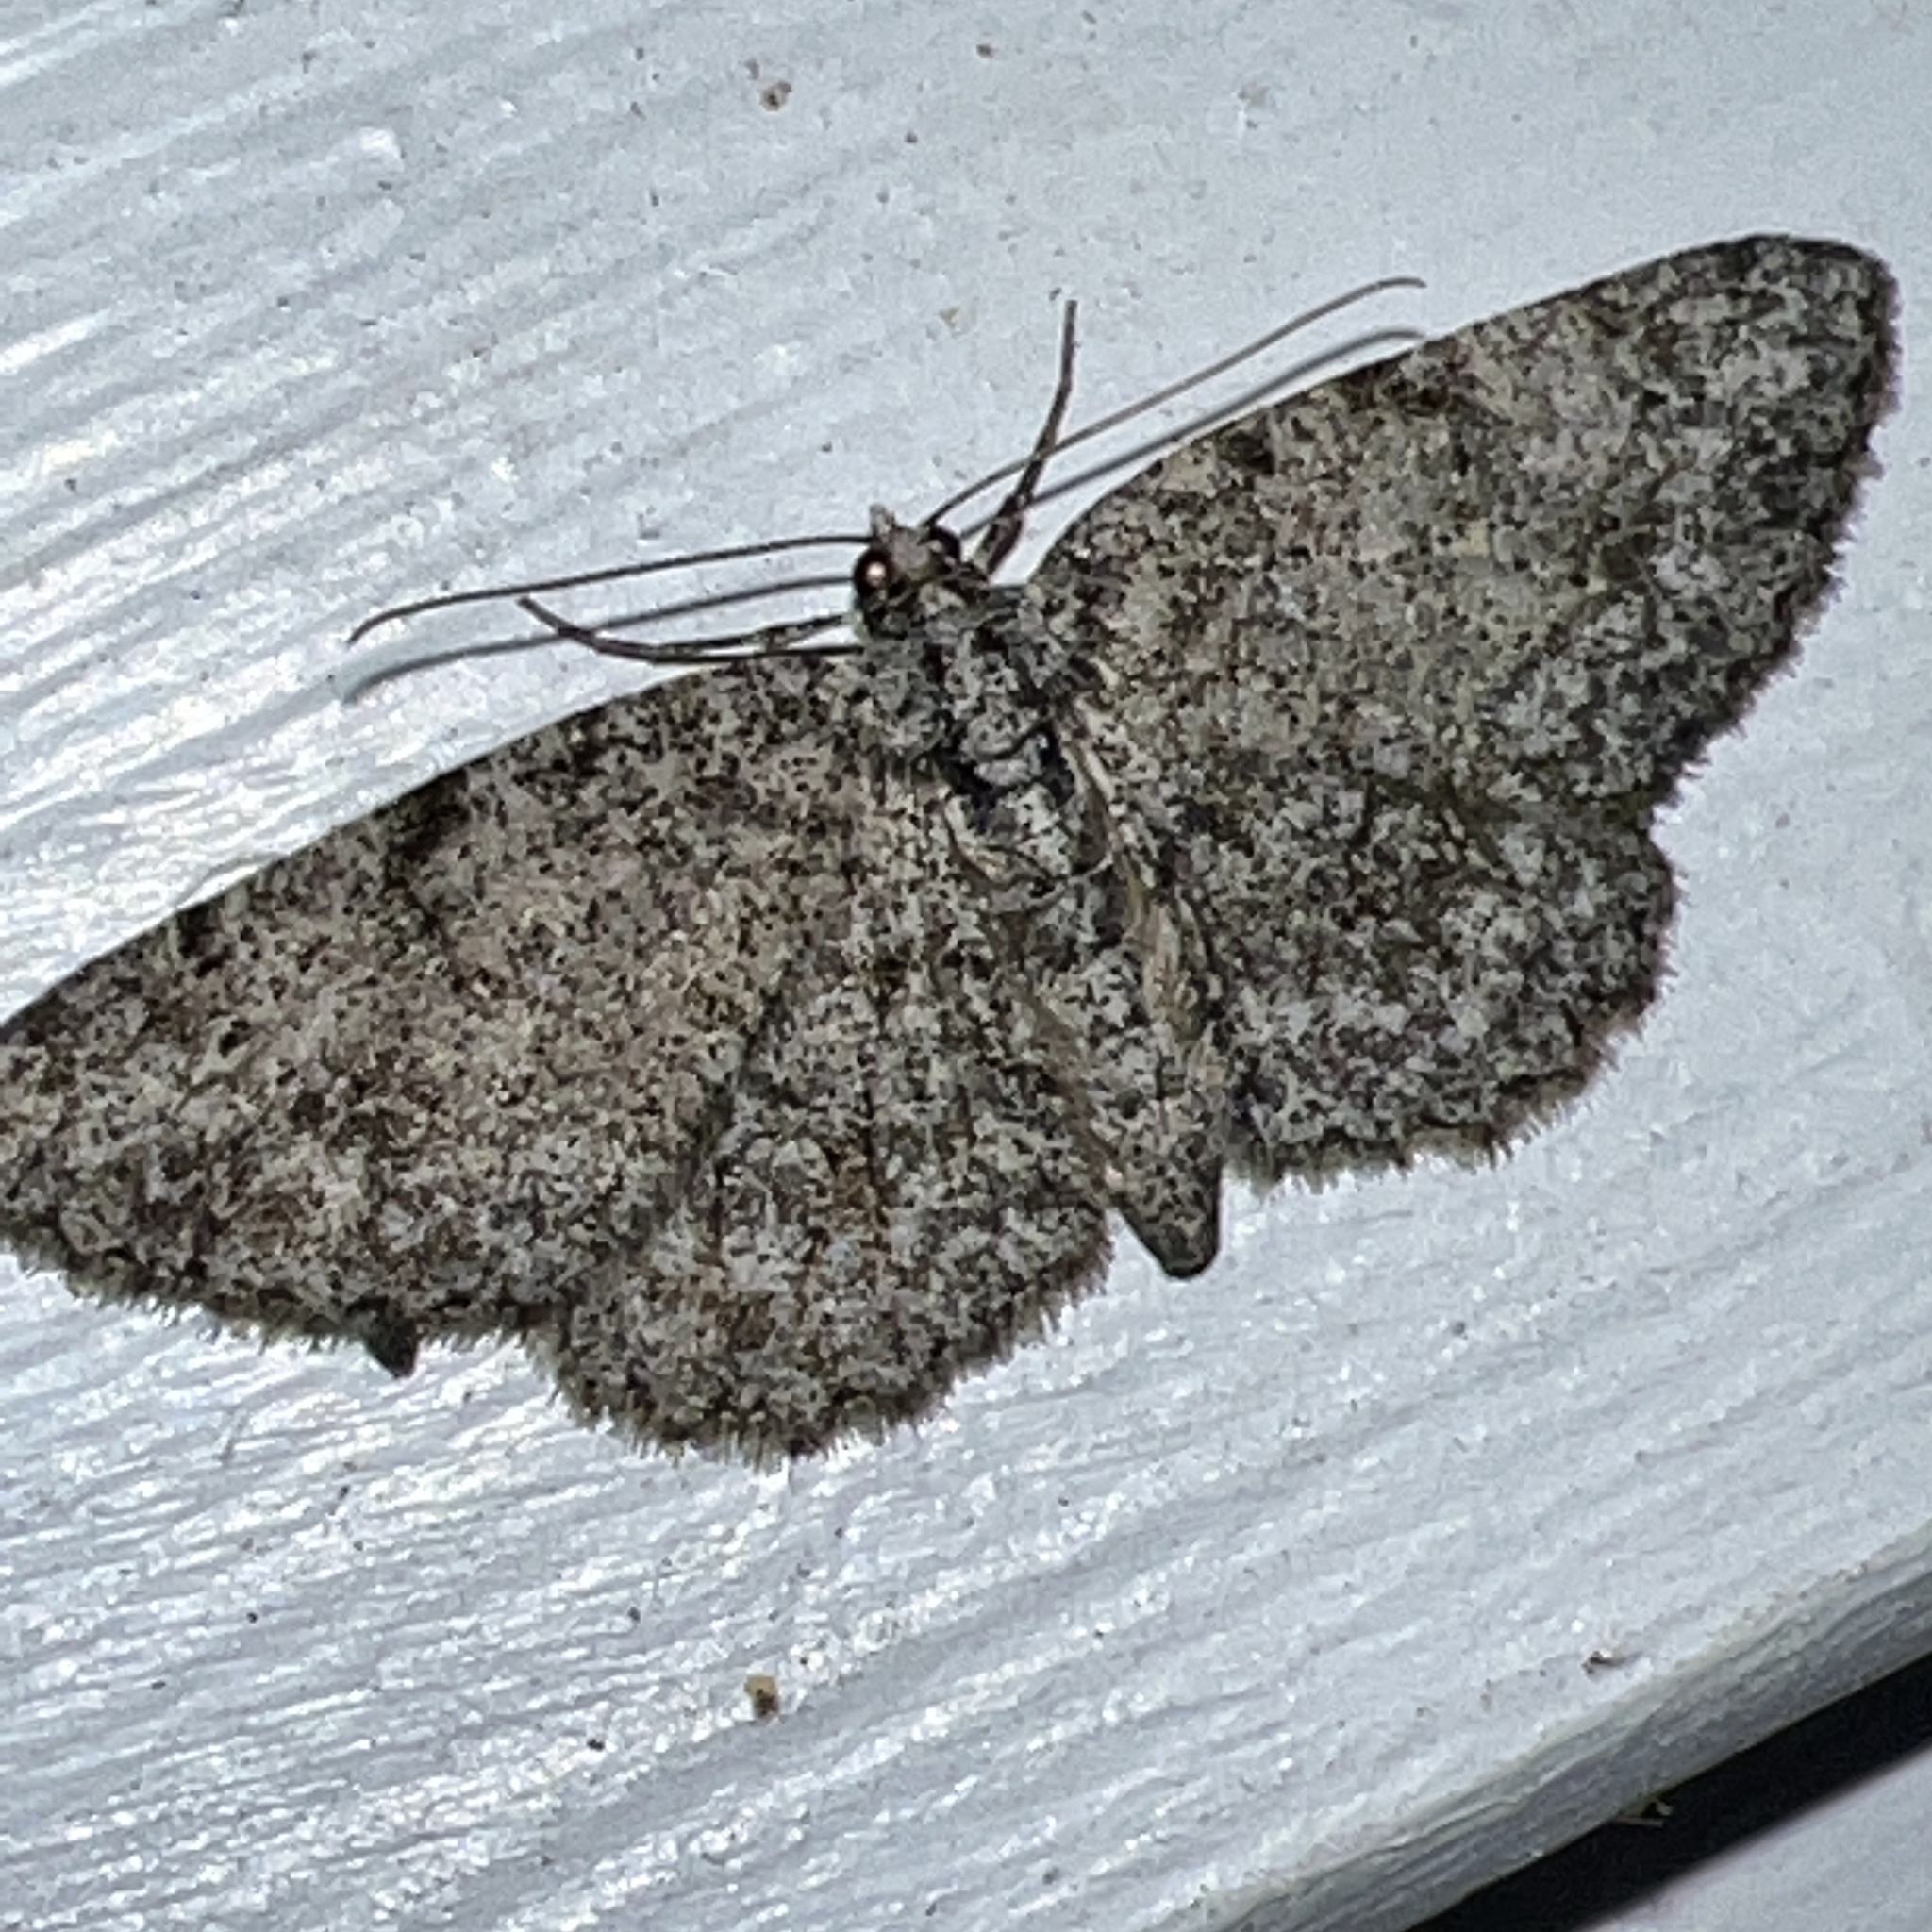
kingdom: Animalia
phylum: Arthropoda
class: Insecta
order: Lepidoptera
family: Geometridae
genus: Protoboarmia
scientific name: Protoboarmia porcelaria
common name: Porcelain gray
